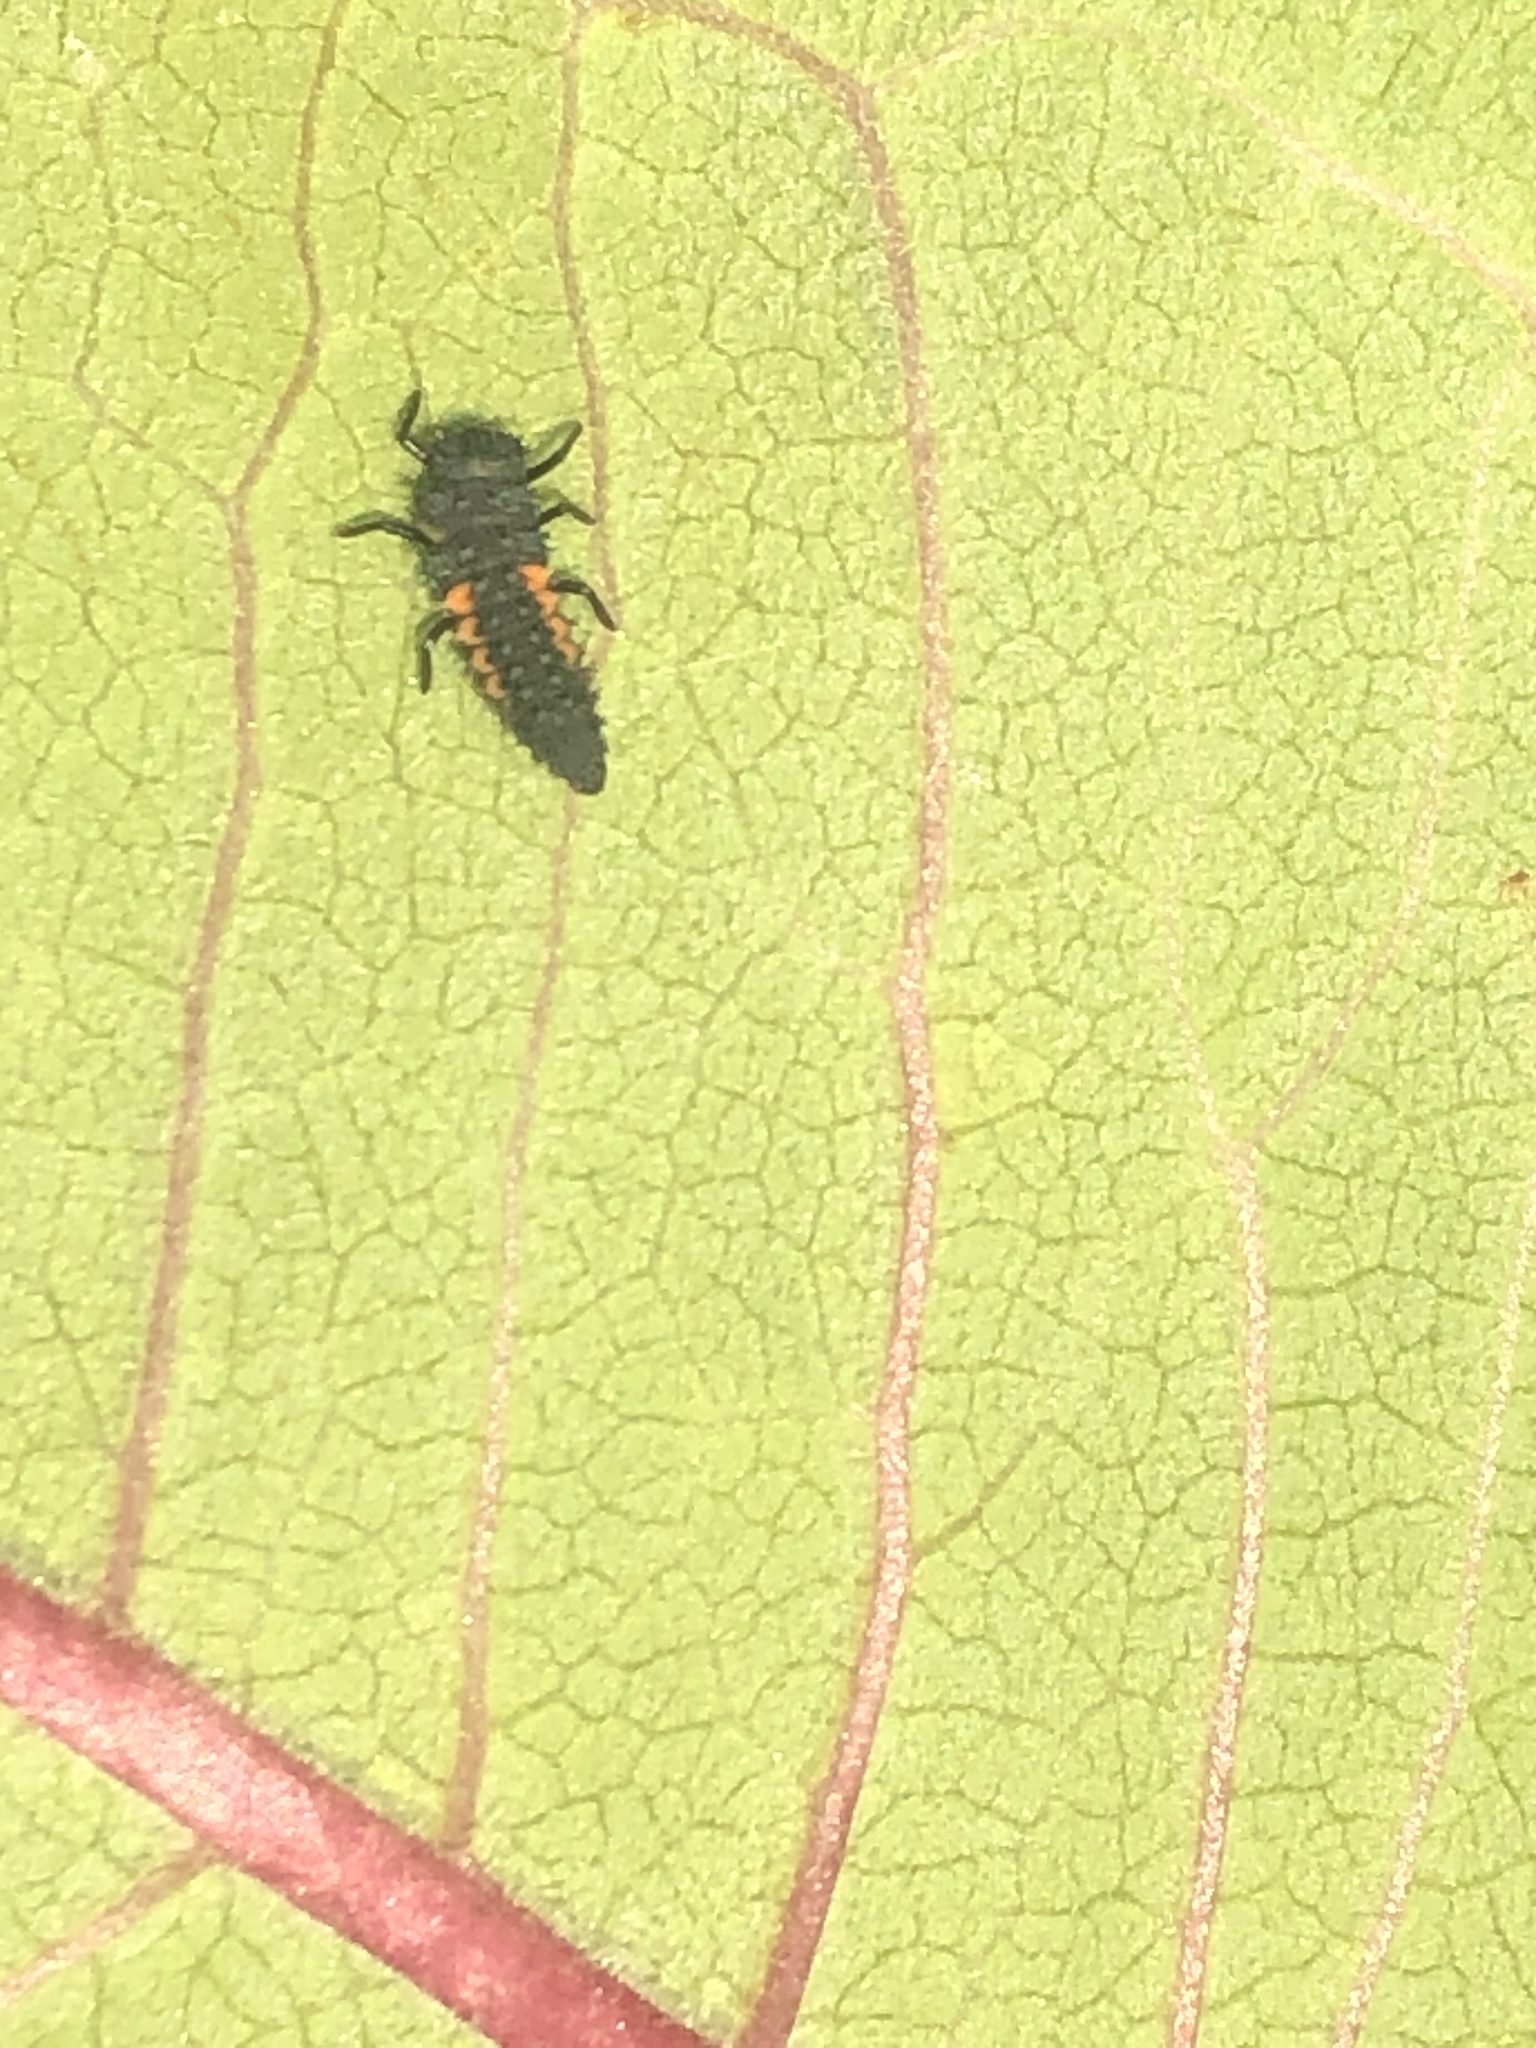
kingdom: Animalia
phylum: Arthropoda
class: Insecta
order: Coleoptera
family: Coccinellidae
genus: Harmonia
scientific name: Harmonia axyridis
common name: Harlequin ladybird
